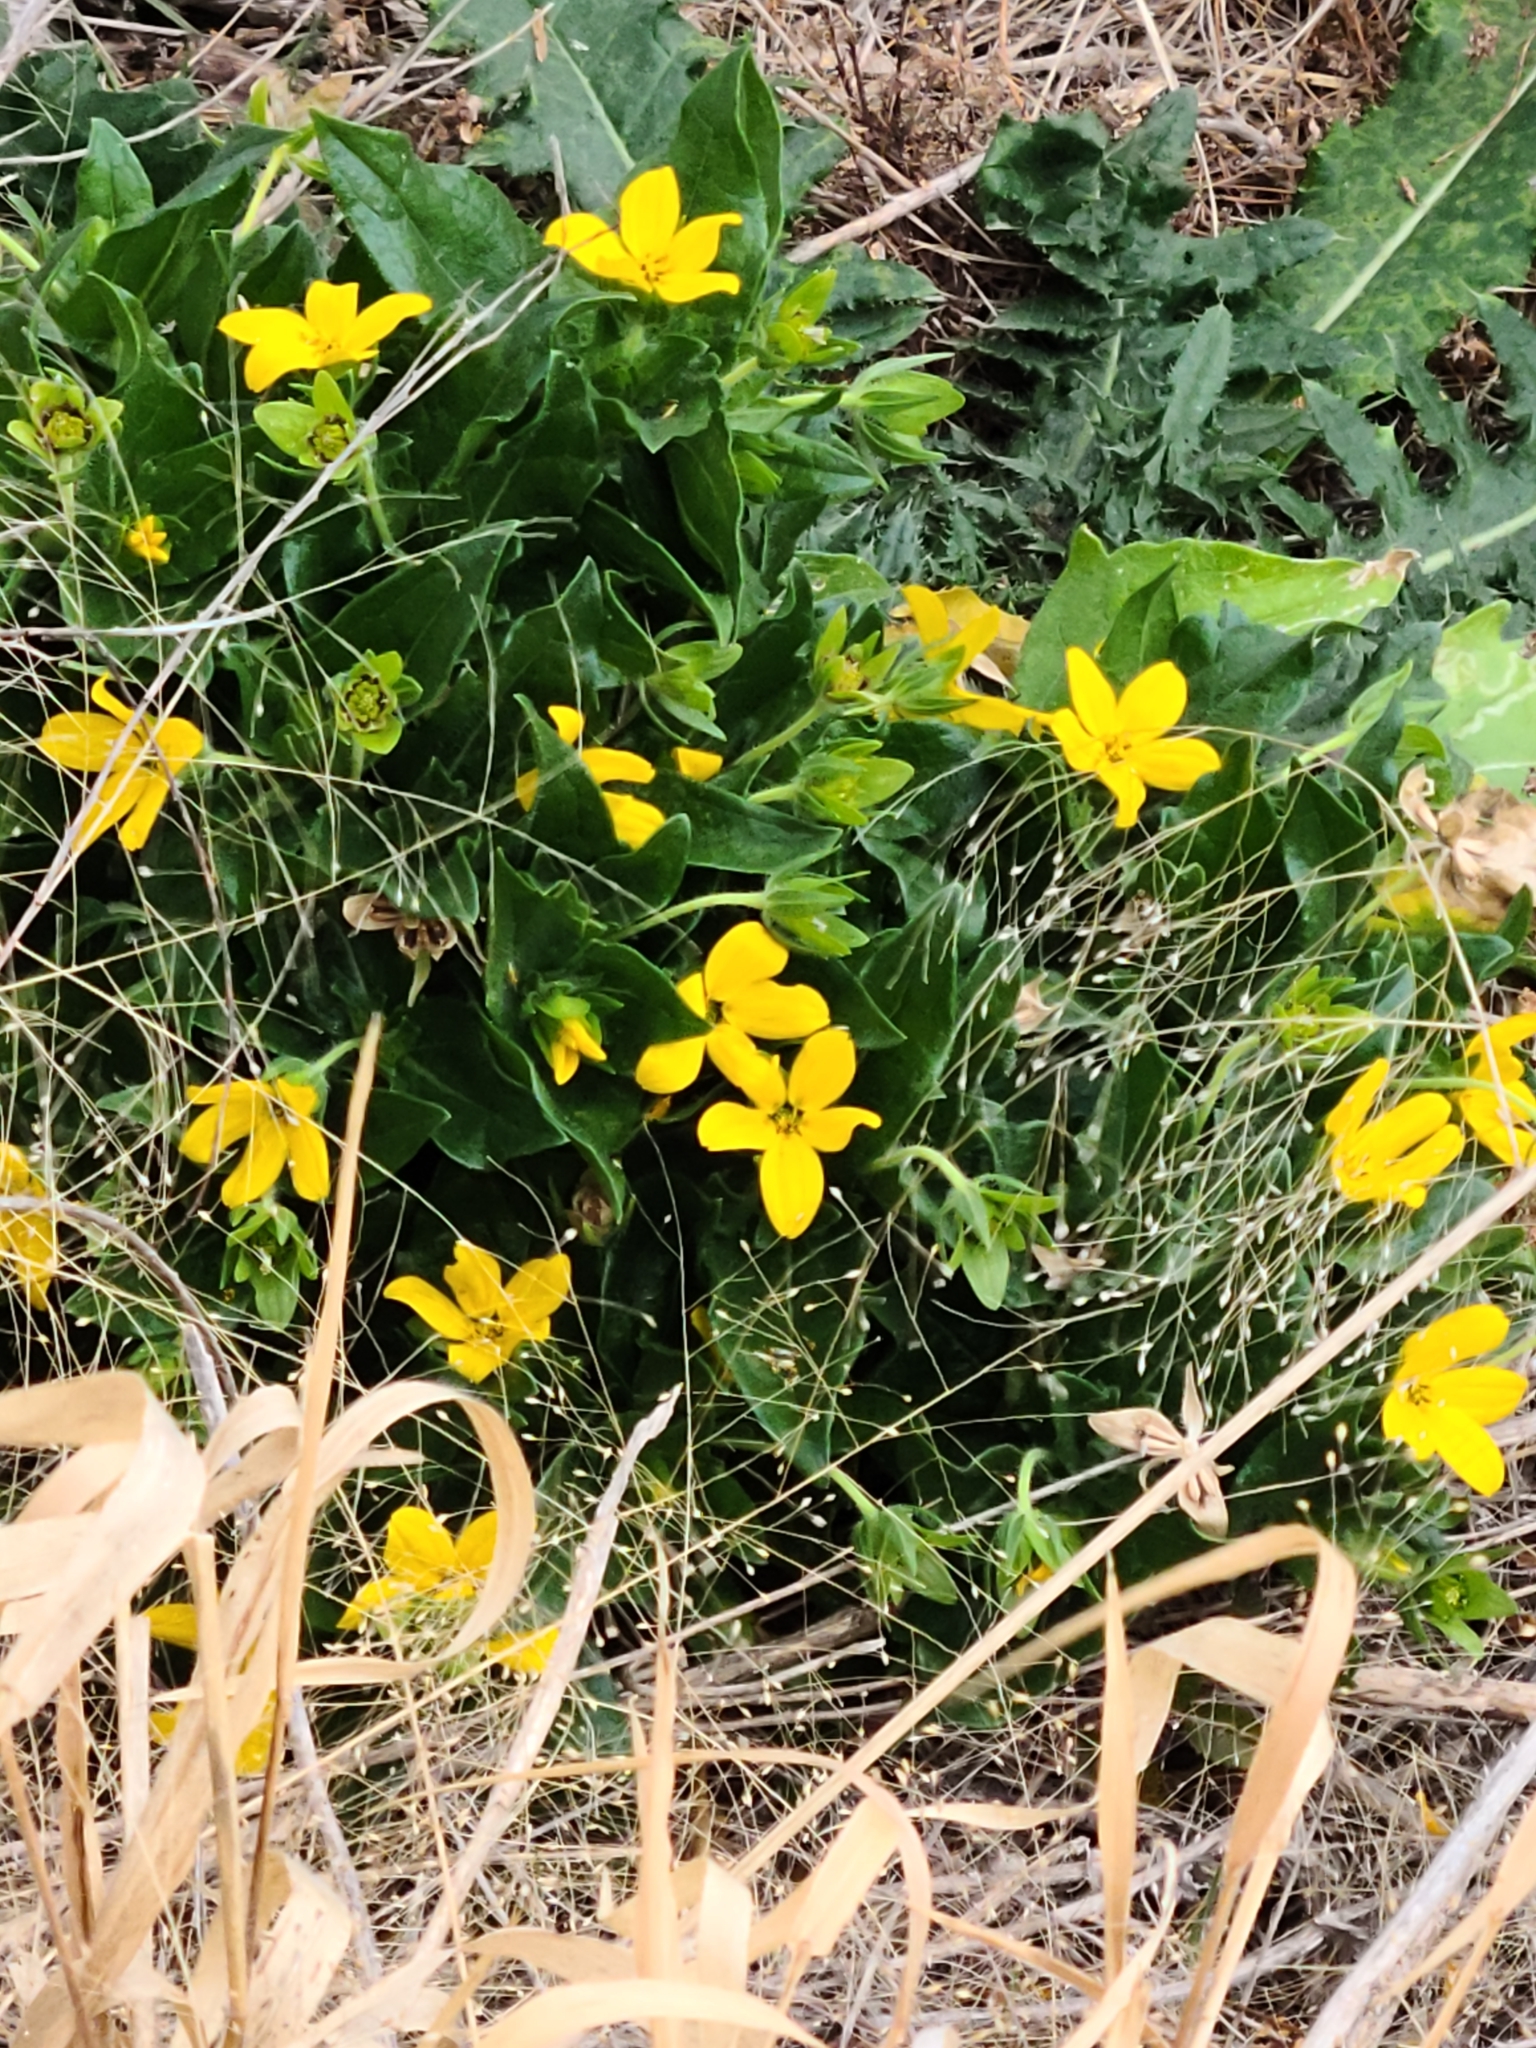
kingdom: Plantae
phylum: Tracheophyta
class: Magnoliopsida
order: Asterales
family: Asteraceae
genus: Lindheimera
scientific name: Lindheimera texana
